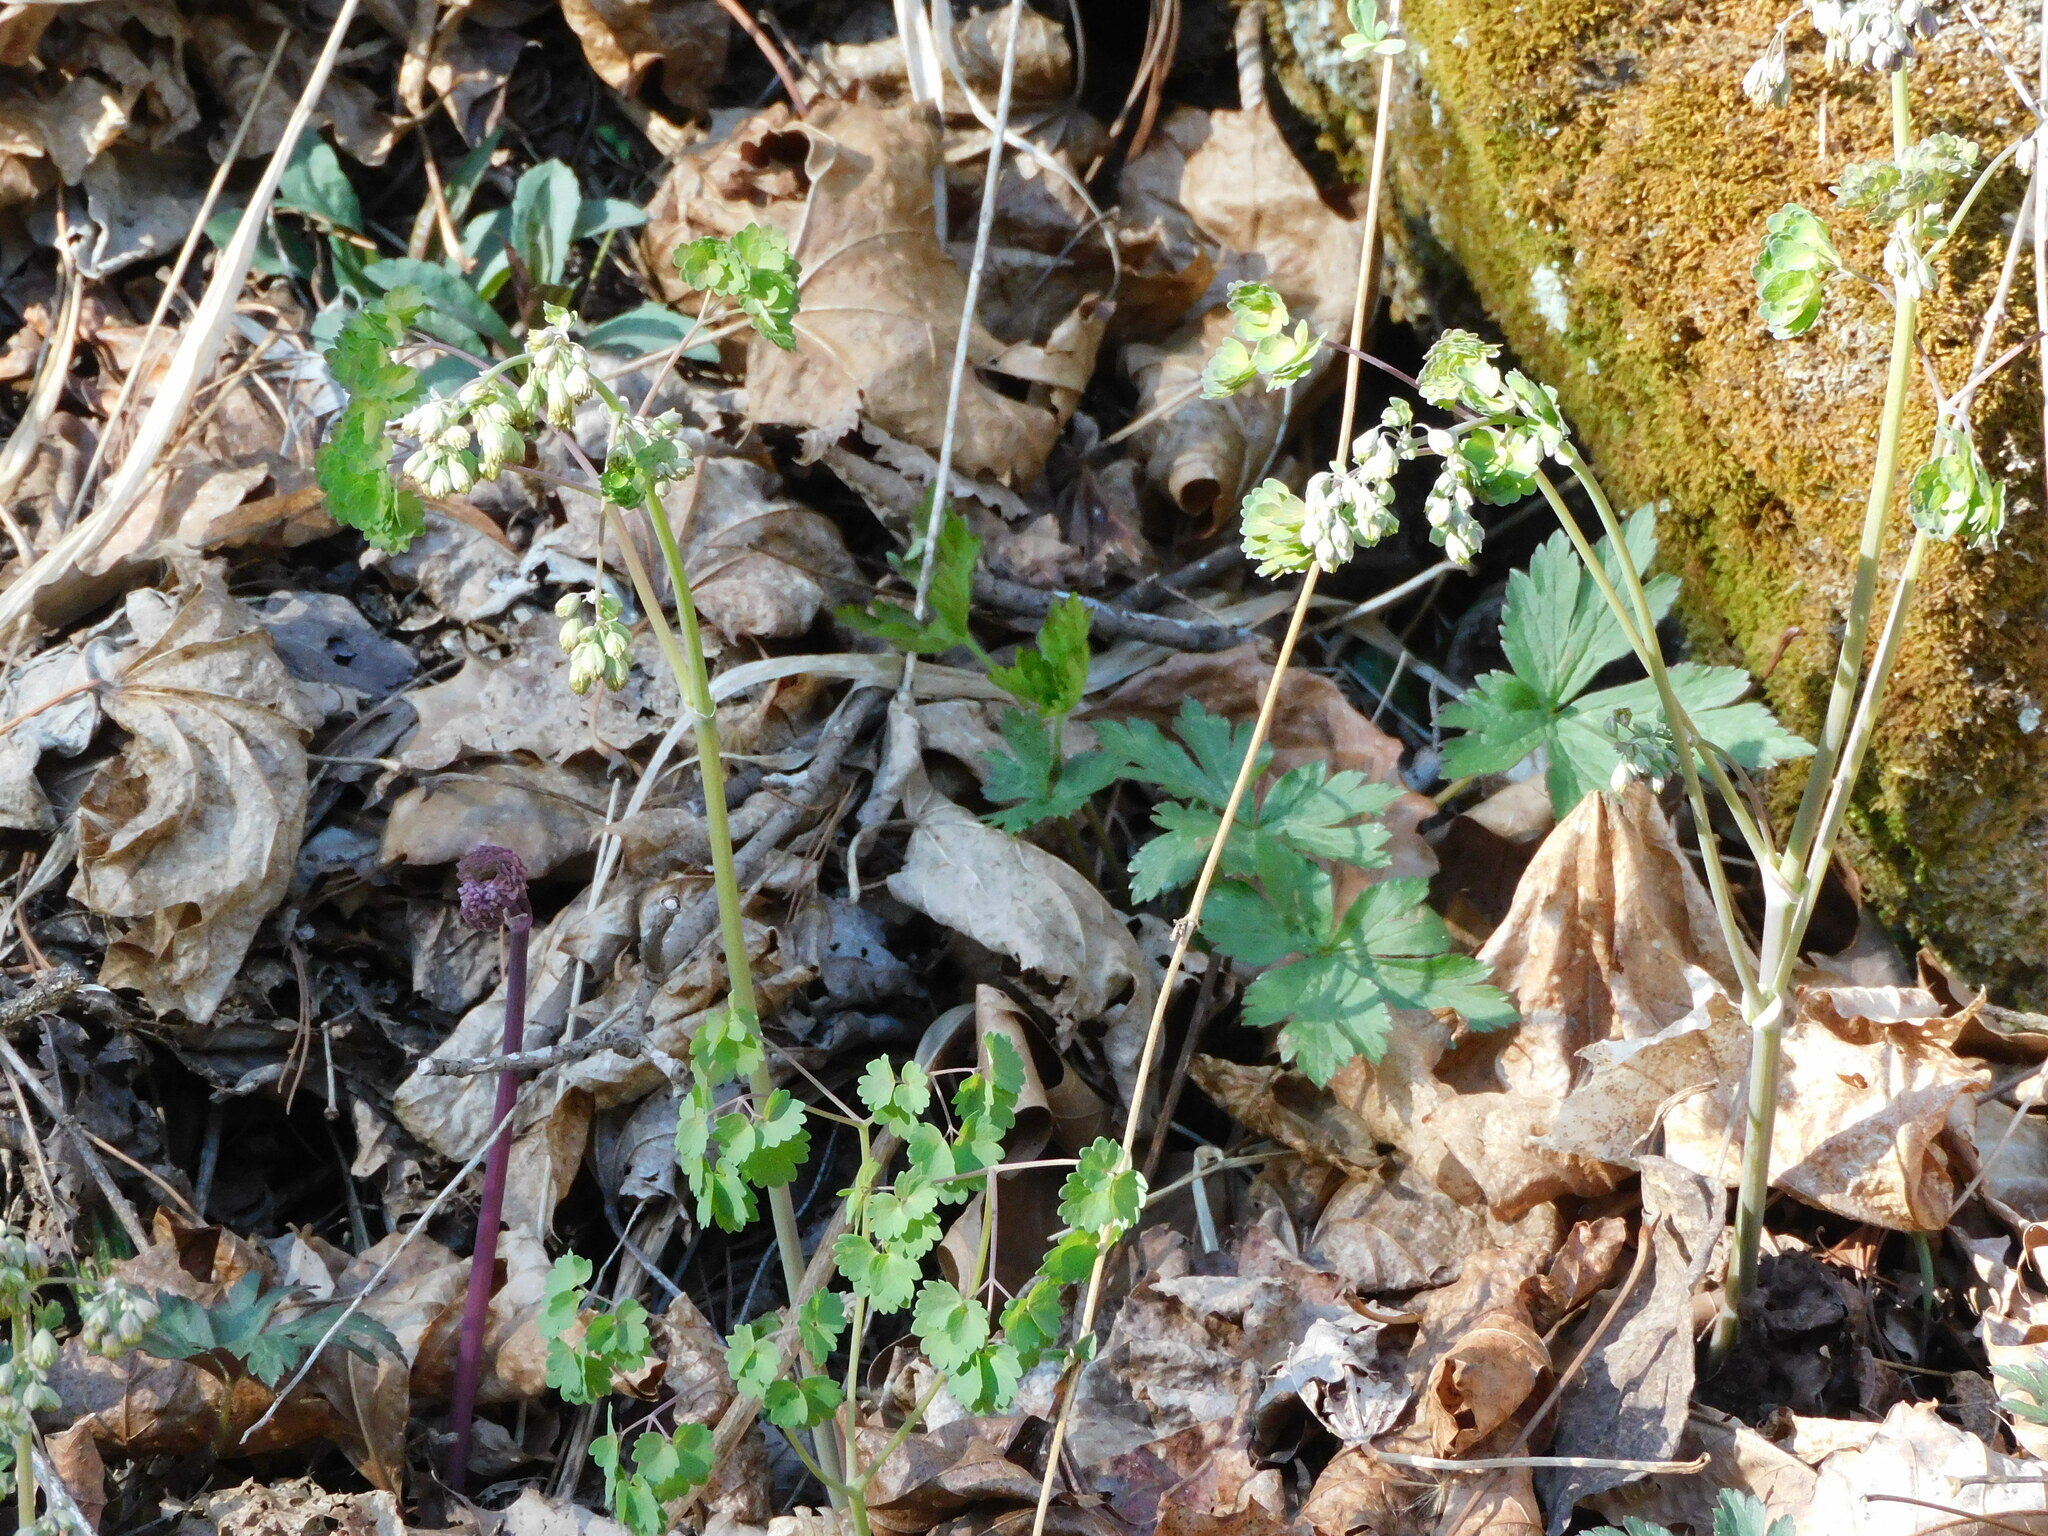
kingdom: Plantae
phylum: Tracheophyta
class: Magnoliopsida
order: Ranunculales
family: Ranunculaceae
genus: Thalictrum
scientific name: Thalictrum dioicum
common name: Early meadow-rue
